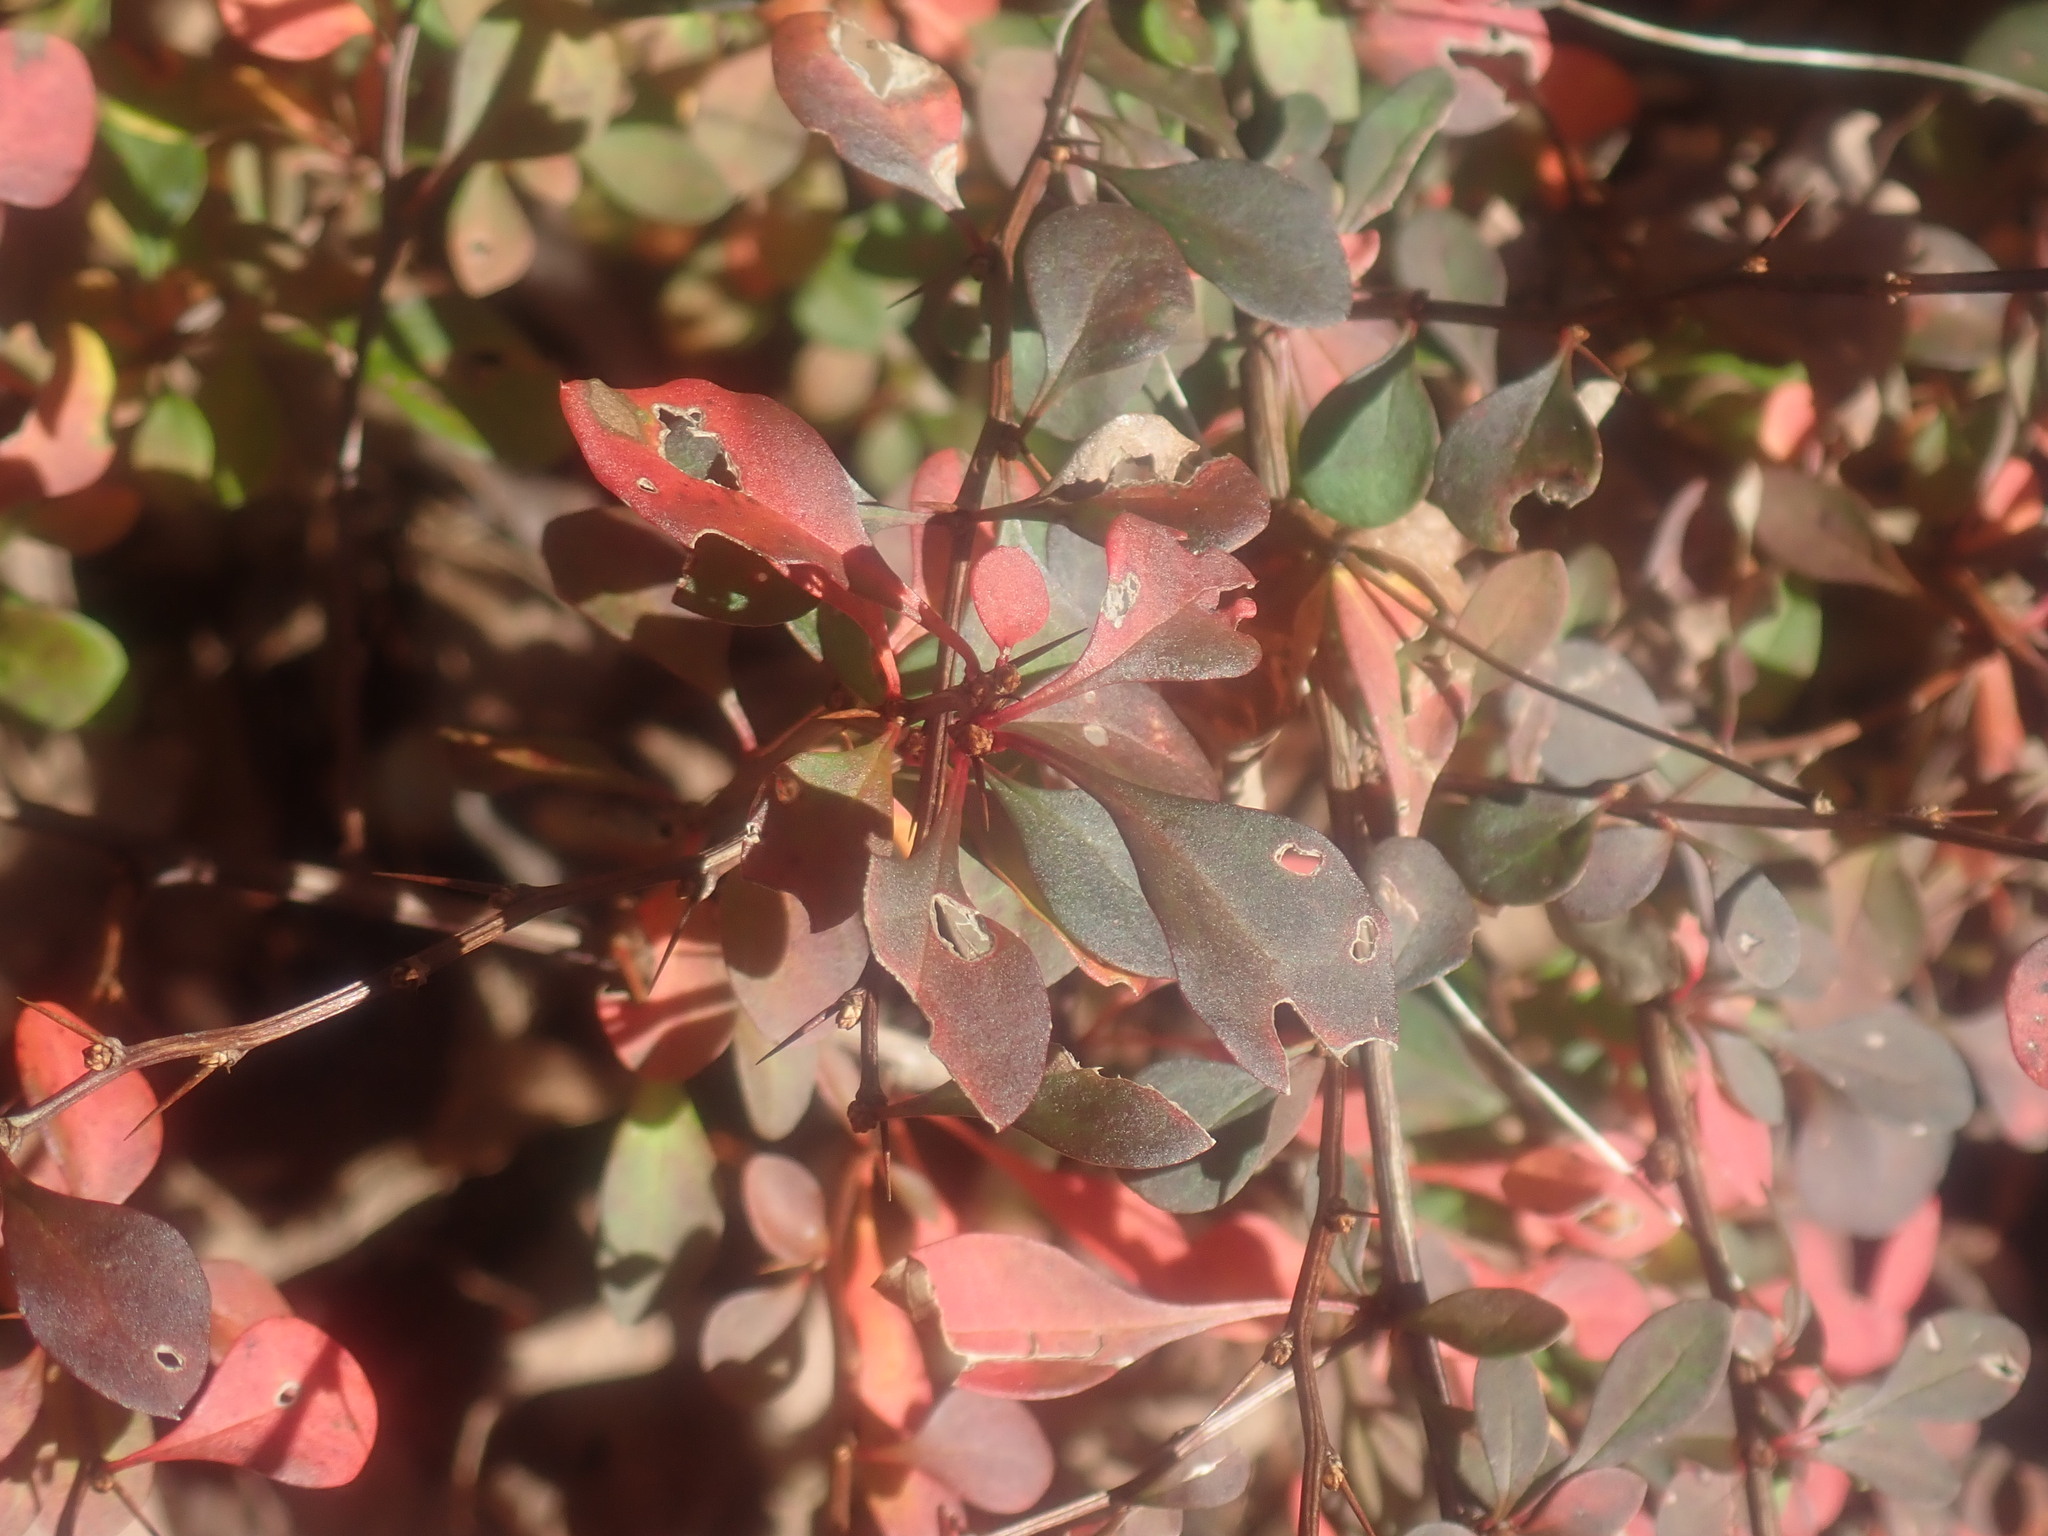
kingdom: Plantae
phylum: Tracheophyta
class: Magnoliopsida
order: Ranunculales
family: Berberidaceae
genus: Berberis
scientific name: Berberis thunbergii
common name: Japanese barberry
